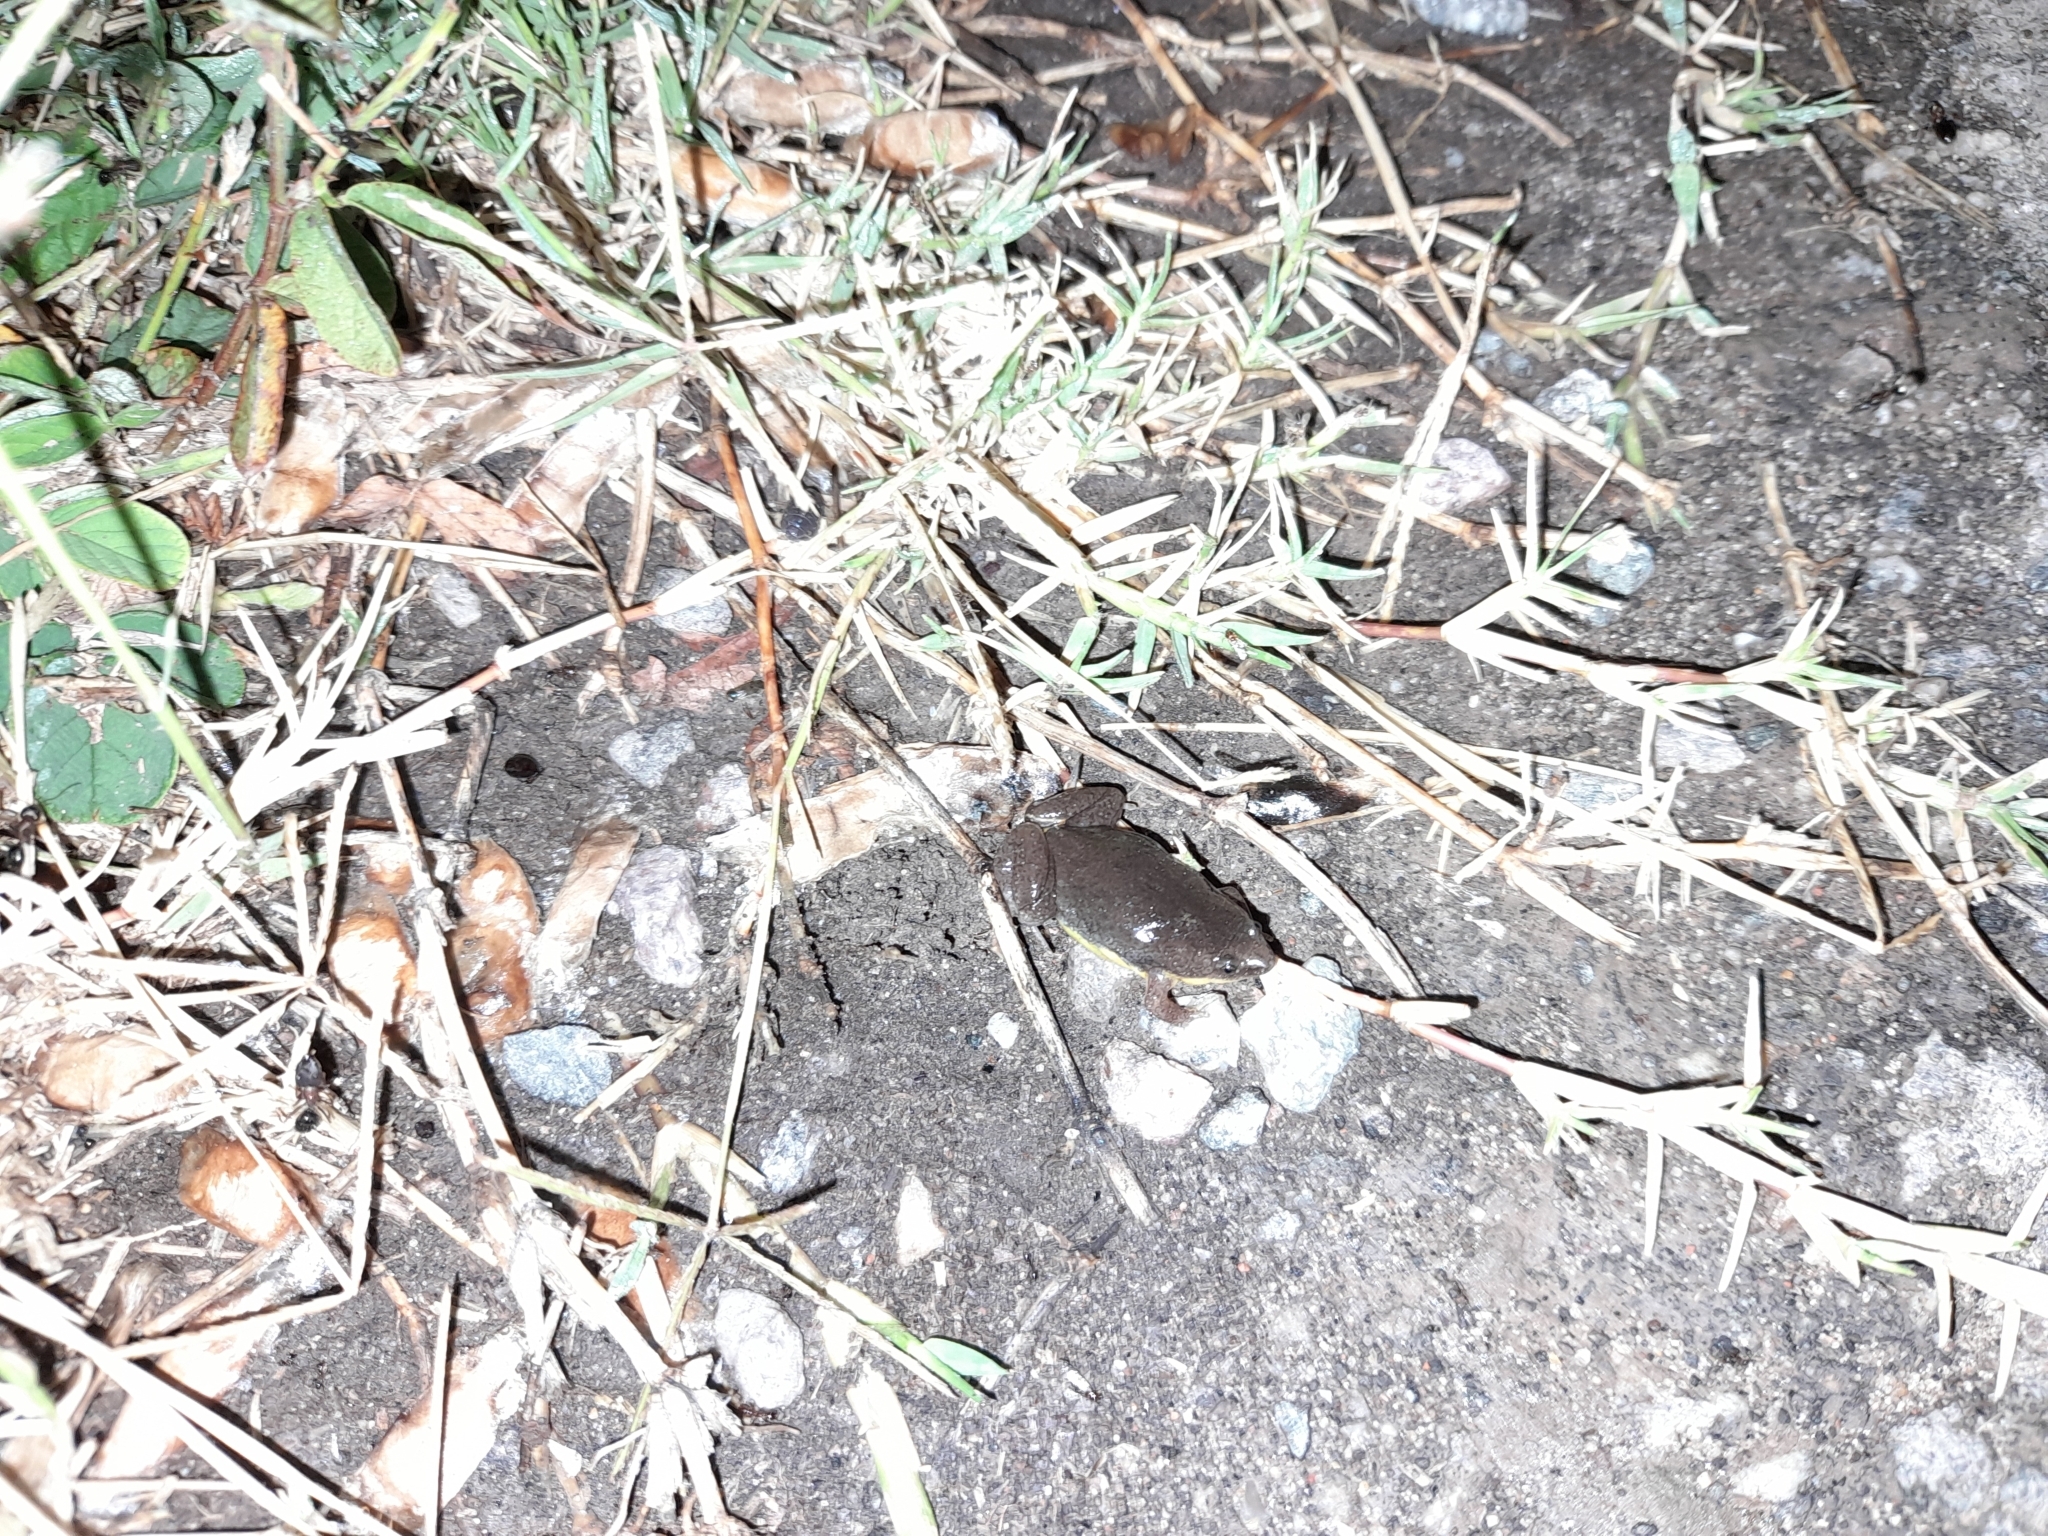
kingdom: Animalia
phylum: Chordata
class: Amphibia
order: Anura
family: Microhylidae
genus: Elachistocleis
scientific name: Elachistocleis bicolor
